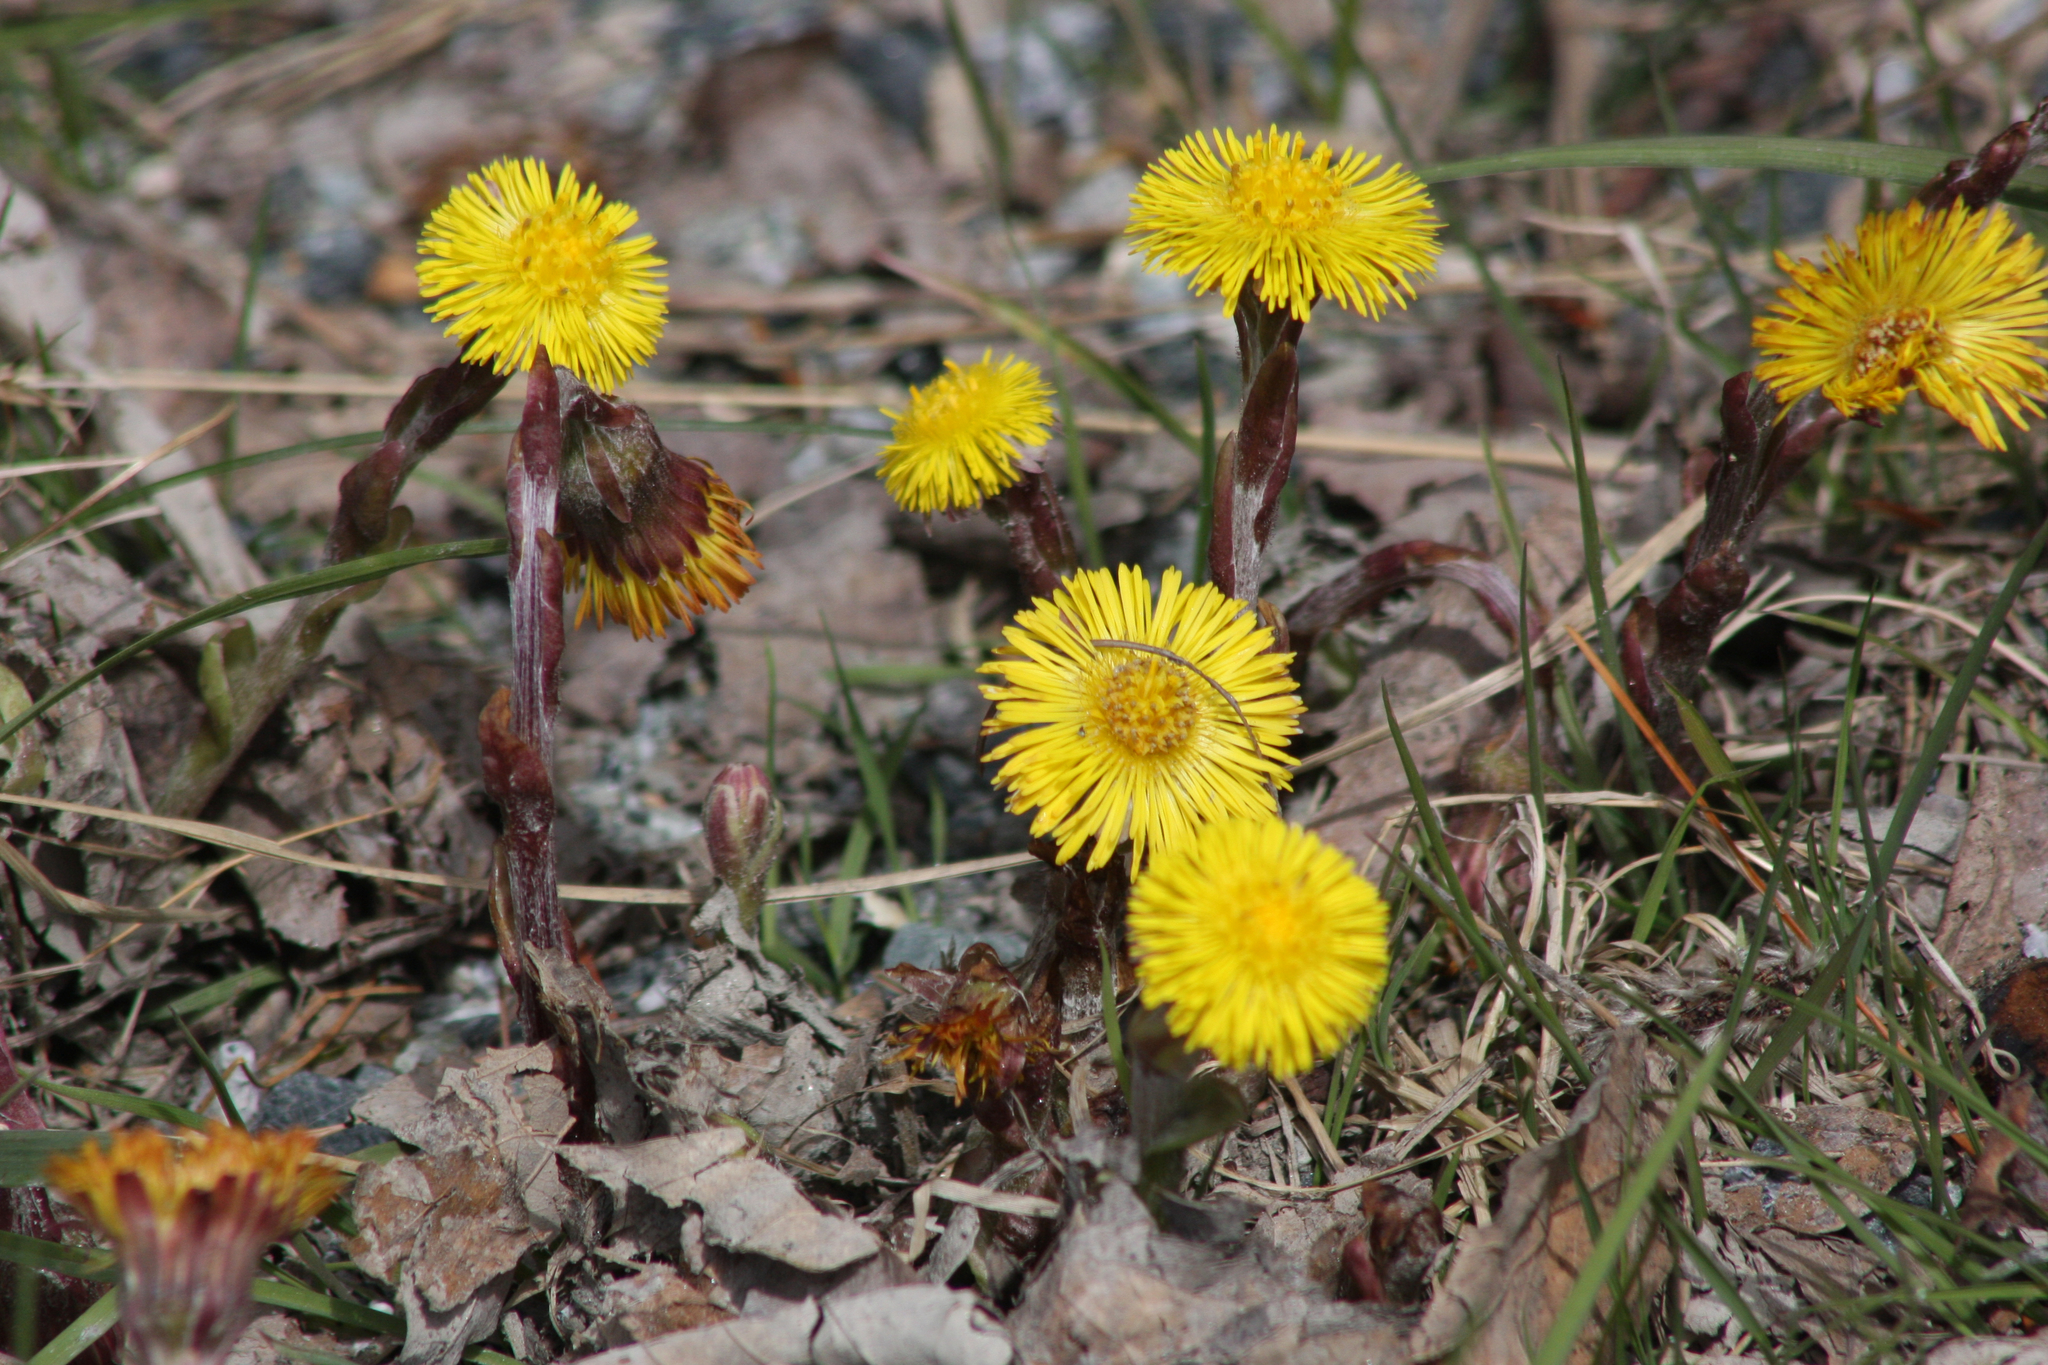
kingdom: Plantae
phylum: Tracheophyta
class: Magnoliopsida
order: Asterales
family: Asteraceae
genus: Tussilago
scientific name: Tussilago farfara
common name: Coltsfoot
